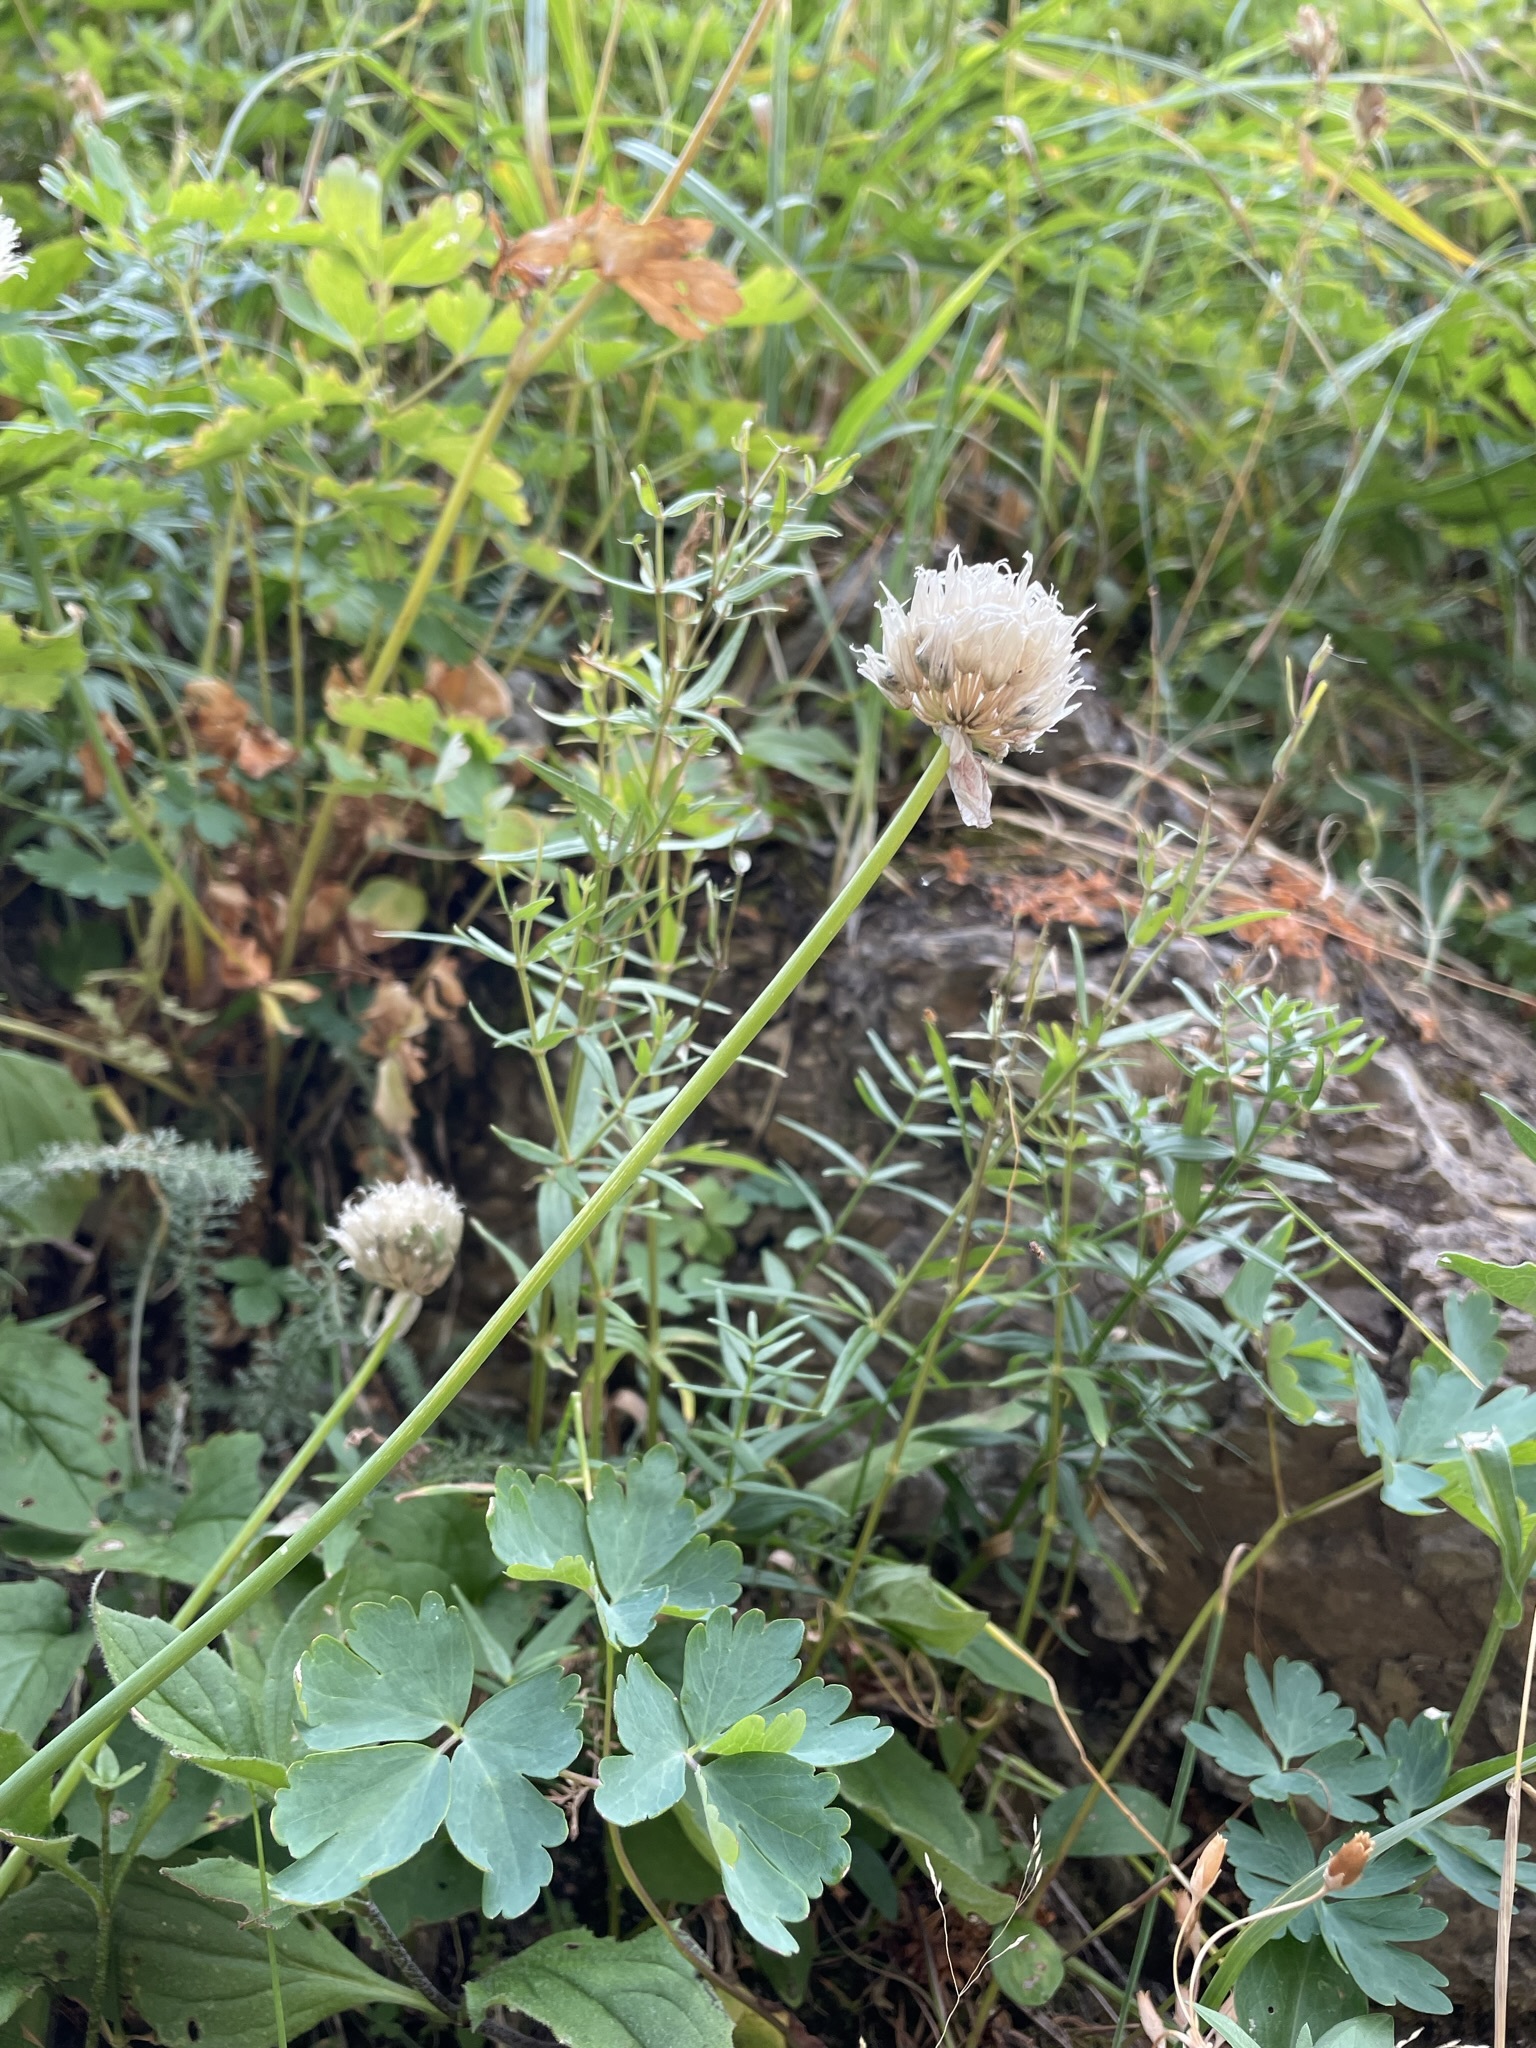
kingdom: Plantae
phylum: Tracheophyta
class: Liliopsida
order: Asparagales
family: Amaryllidaceae
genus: Allium
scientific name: Allium schoenoprasum
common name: Chives
